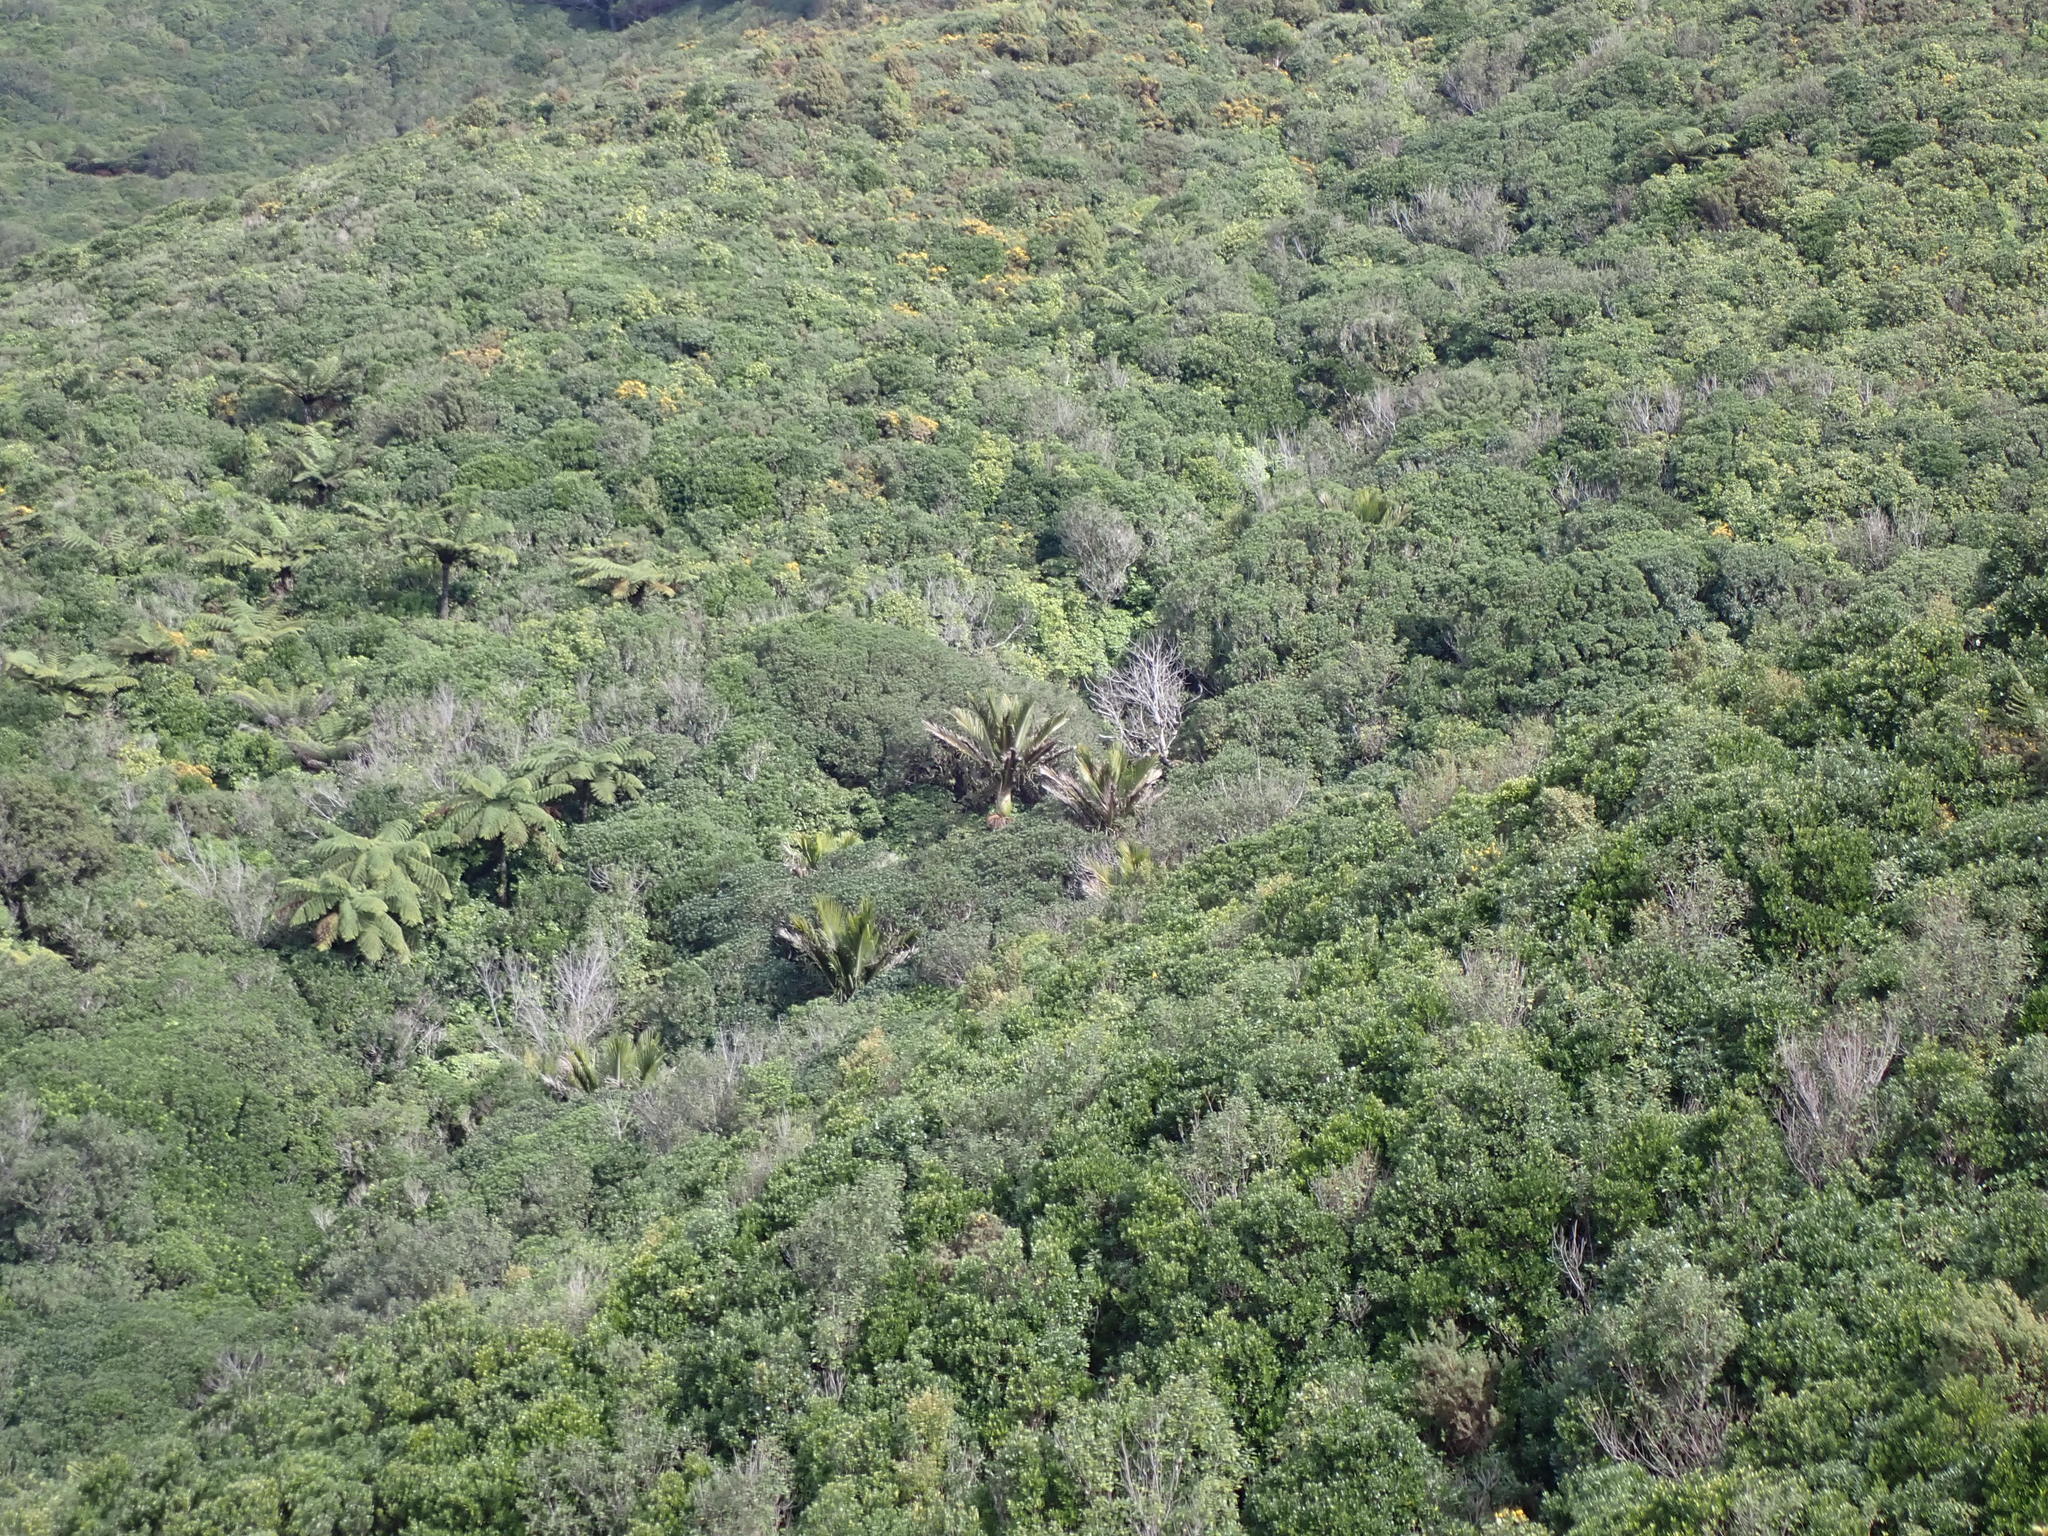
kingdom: Plantae
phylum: Tracheophyta
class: Liliopsida
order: Arecales
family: Arecaceae
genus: Rhopalostylis
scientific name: Rhopalostylis sapida
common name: Feather-duster palm
